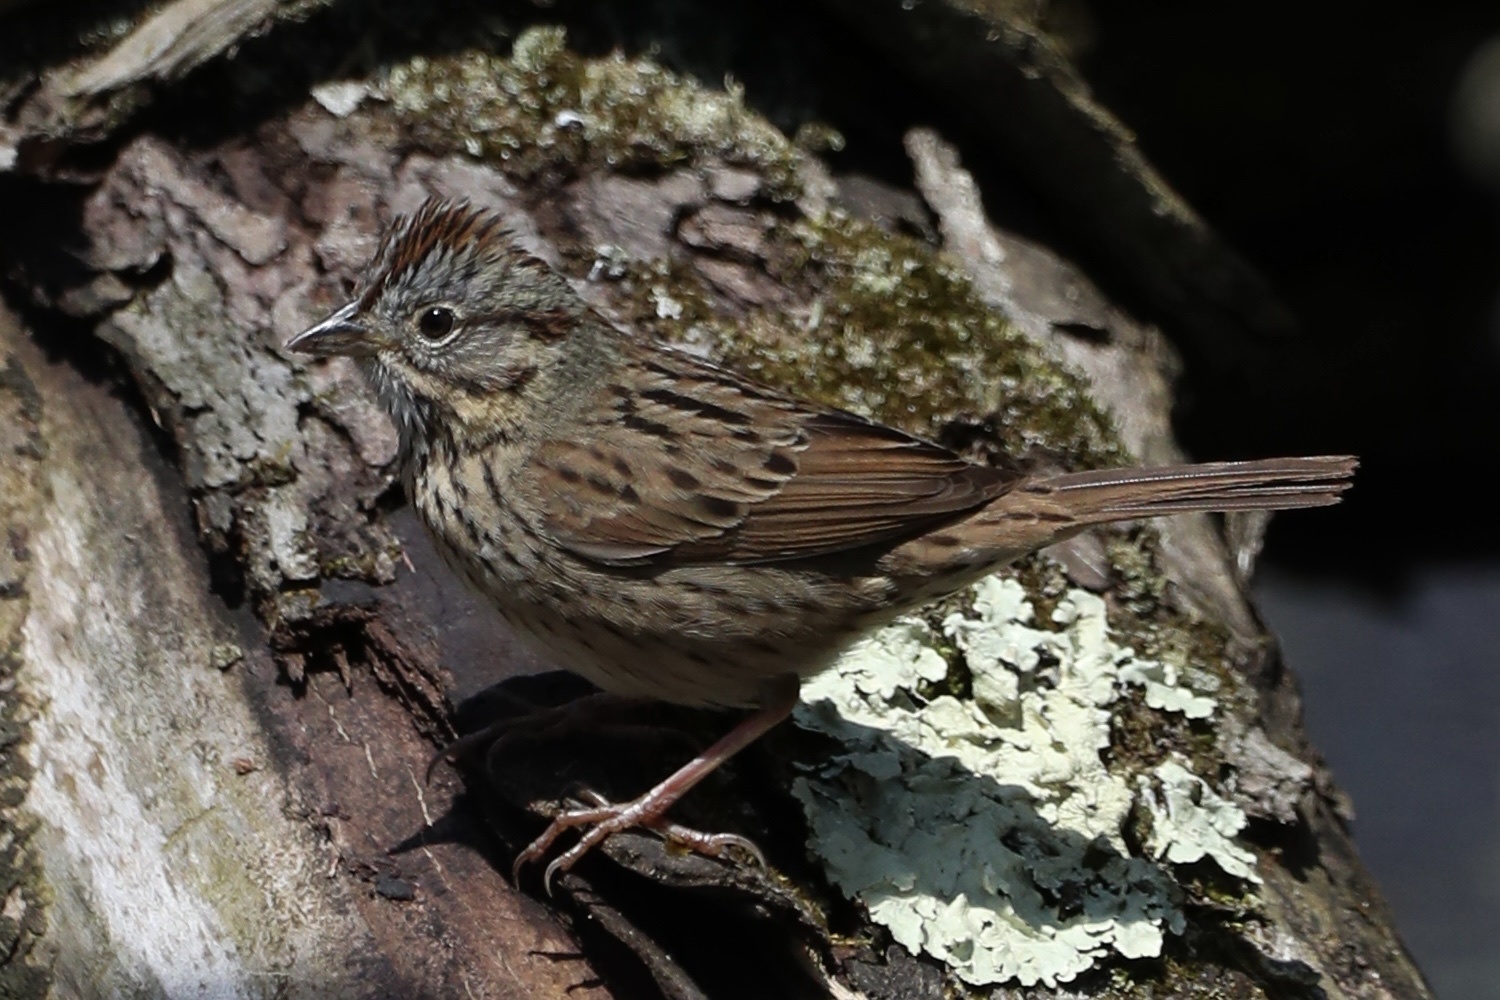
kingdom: Animalia
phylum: Chordata
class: Aves
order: Passeriformes
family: Passerellidae
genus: Melospiza
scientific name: Melospiza lincolnii
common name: Lincoln's sparrow
